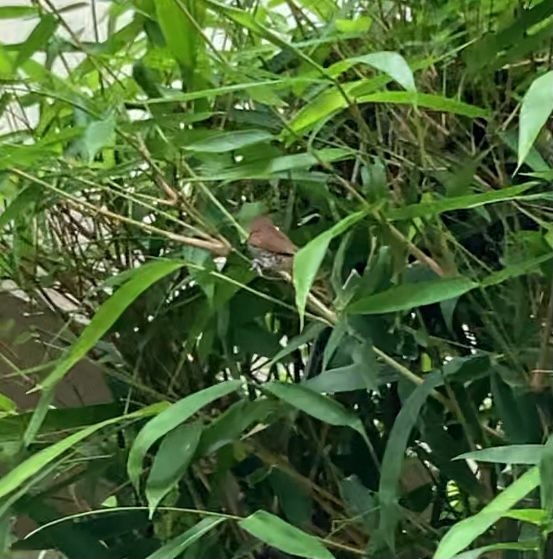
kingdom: Animalia
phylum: Chordata
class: Aves
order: Passeriformes
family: Estrildidae
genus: Lonchura
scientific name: Lonchura punctulata
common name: Scaly-breasted munia
